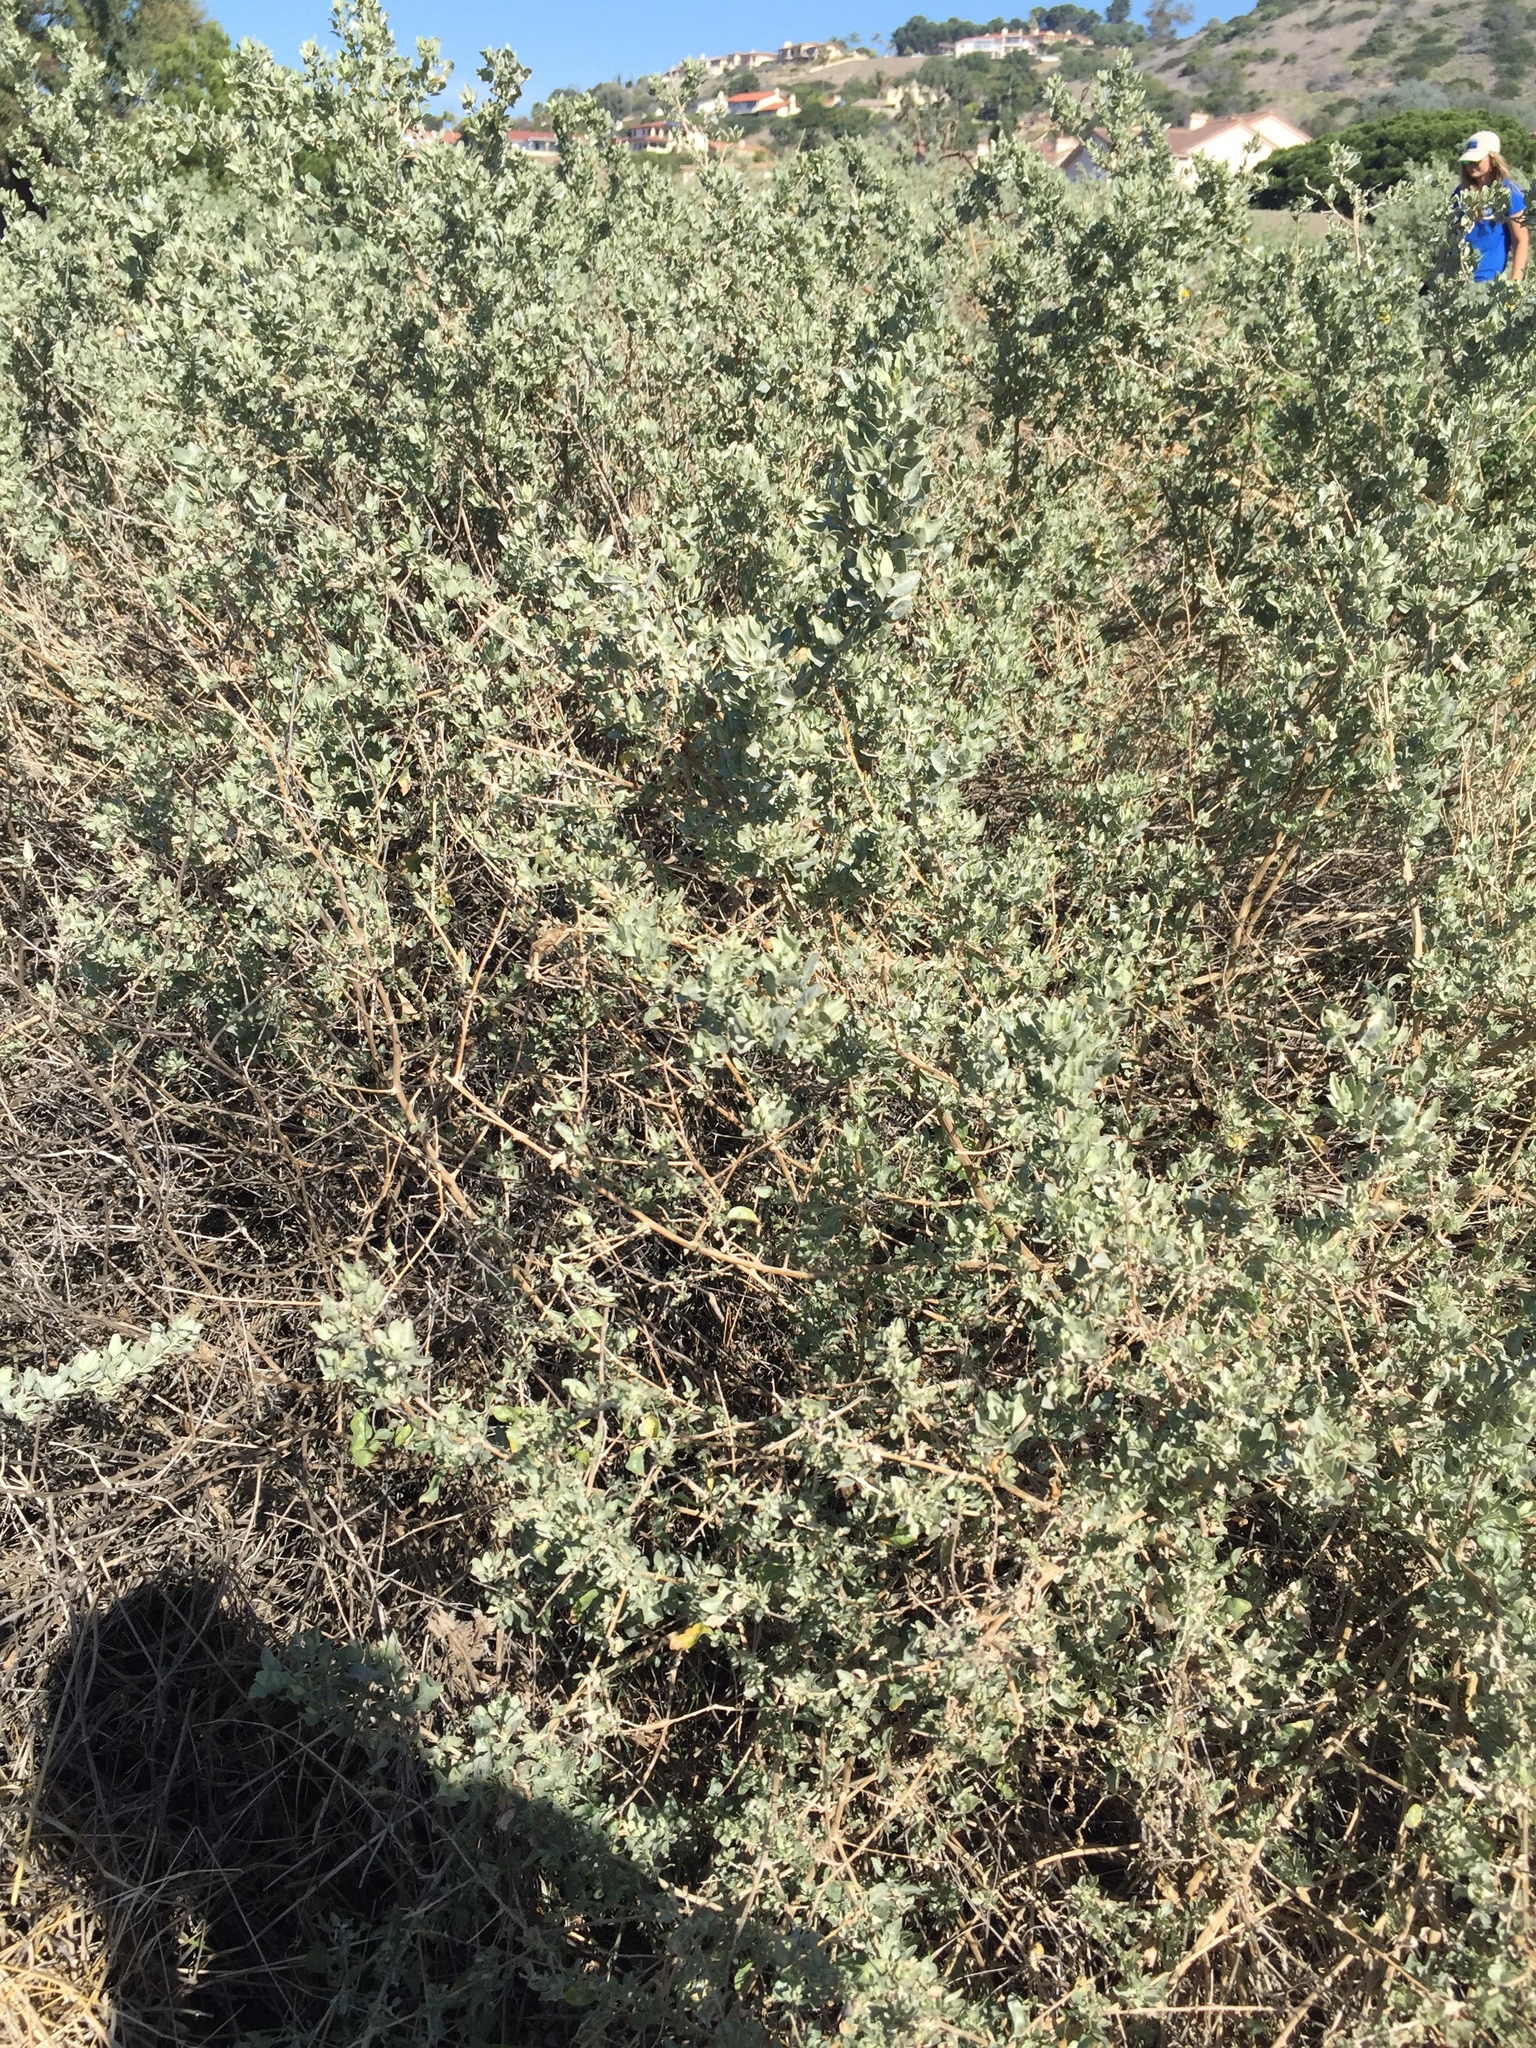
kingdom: Plantae
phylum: Tracheophyta
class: Magnoliopsida
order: Caryophyllales
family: Amaranthaceae
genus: Atriplex
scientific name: Atriplex lentiformis
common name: Big saltbush
